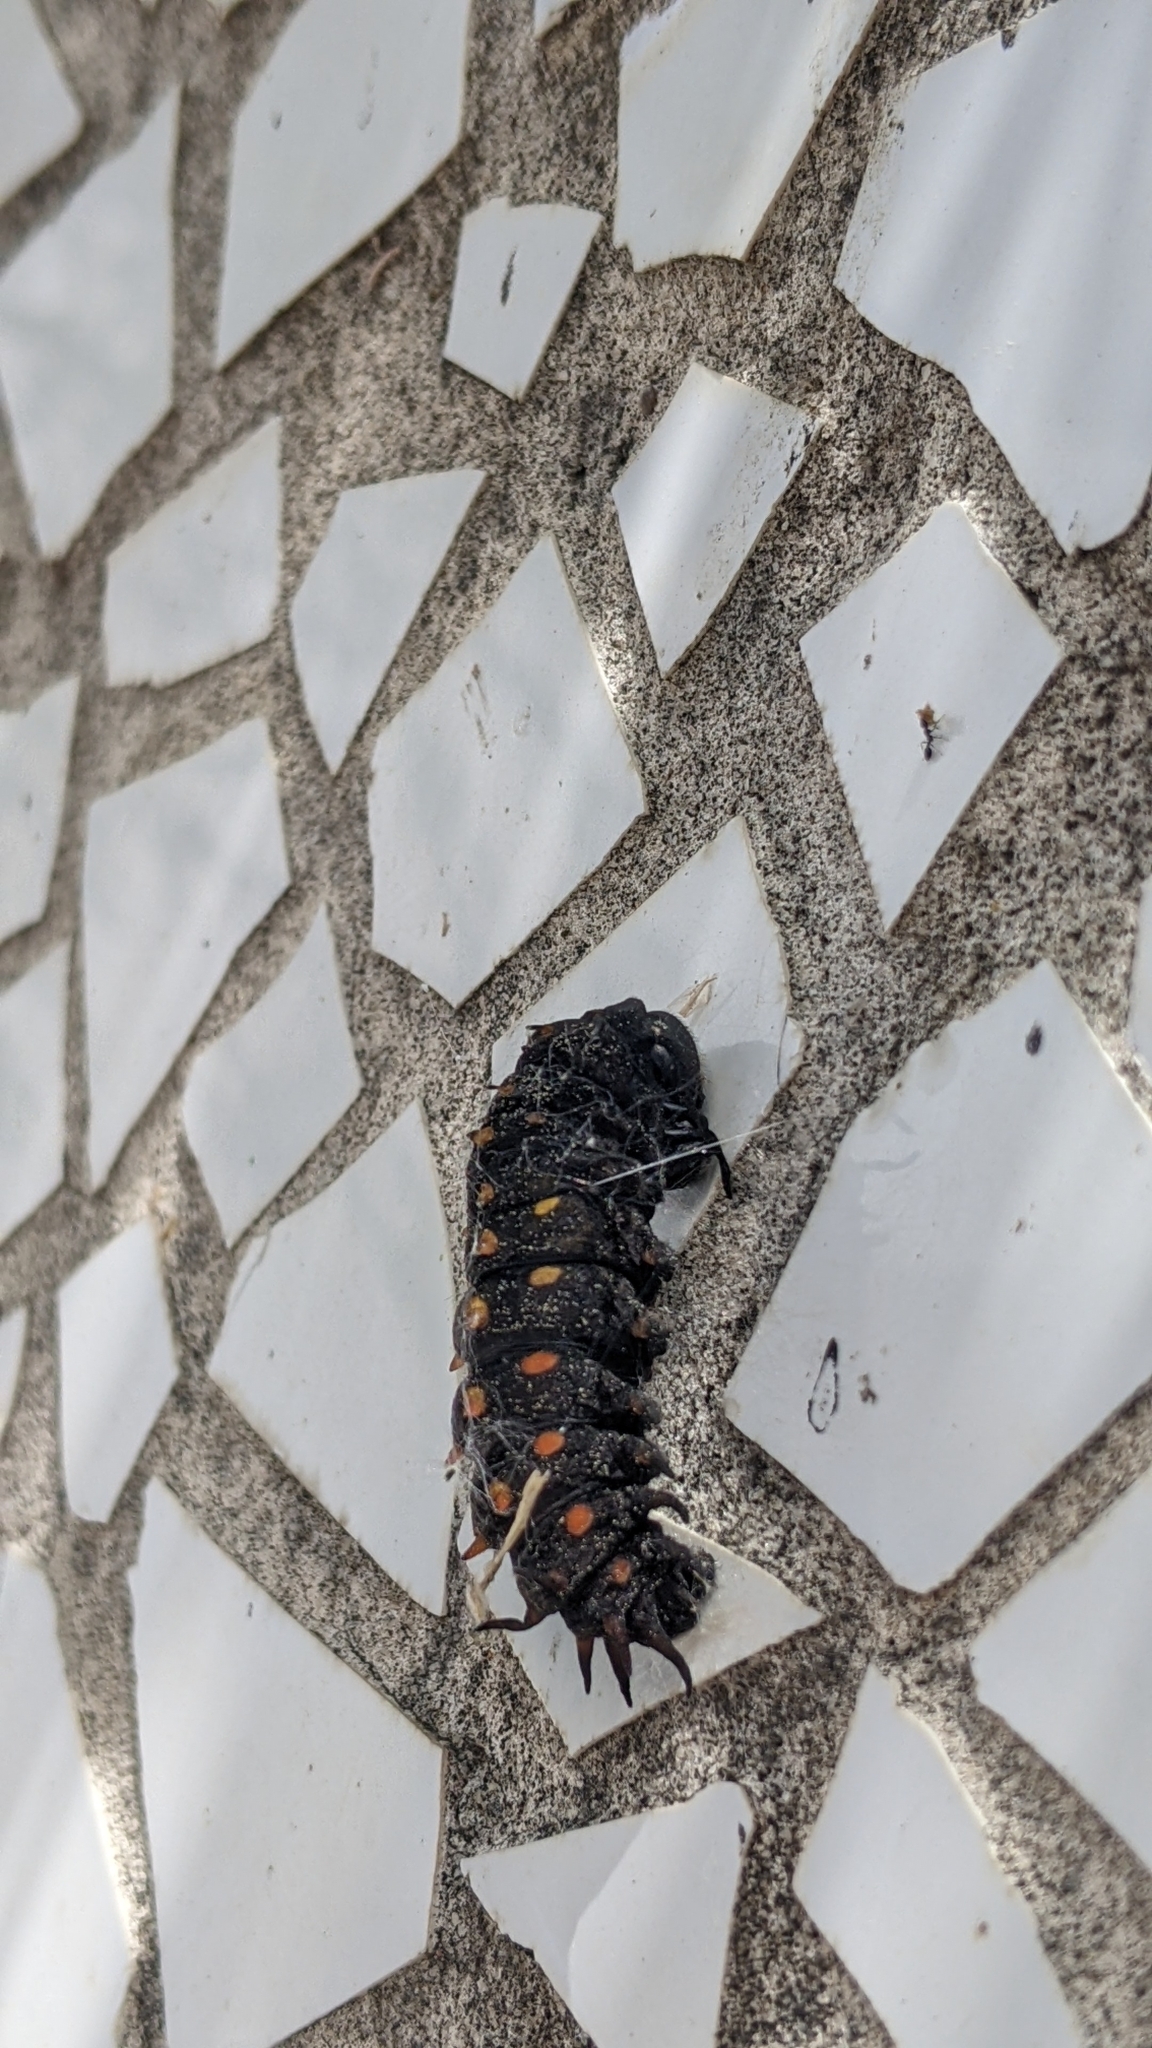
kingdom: Animalia
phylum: Arthropoda
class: Insecta
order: Lepidoptera
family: Papilionidae
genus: Battus
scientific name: Battus philenor
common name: Pipevine swallowtail
